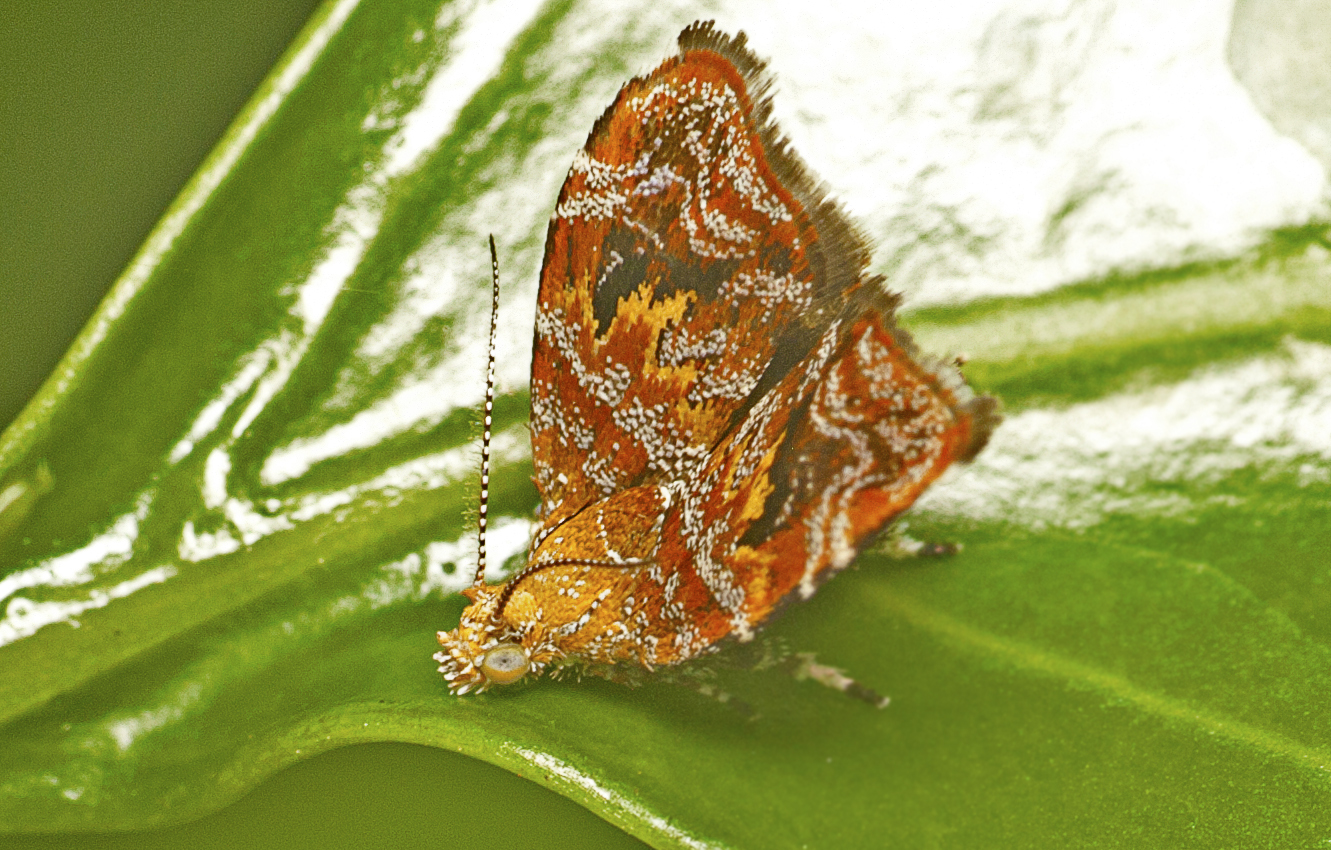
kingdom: Animalia
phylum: Arthropoda
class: Insecta
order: Lepidoptera
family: Choreutidae
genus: Choreutis
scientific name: Choreutis sexfasciella
